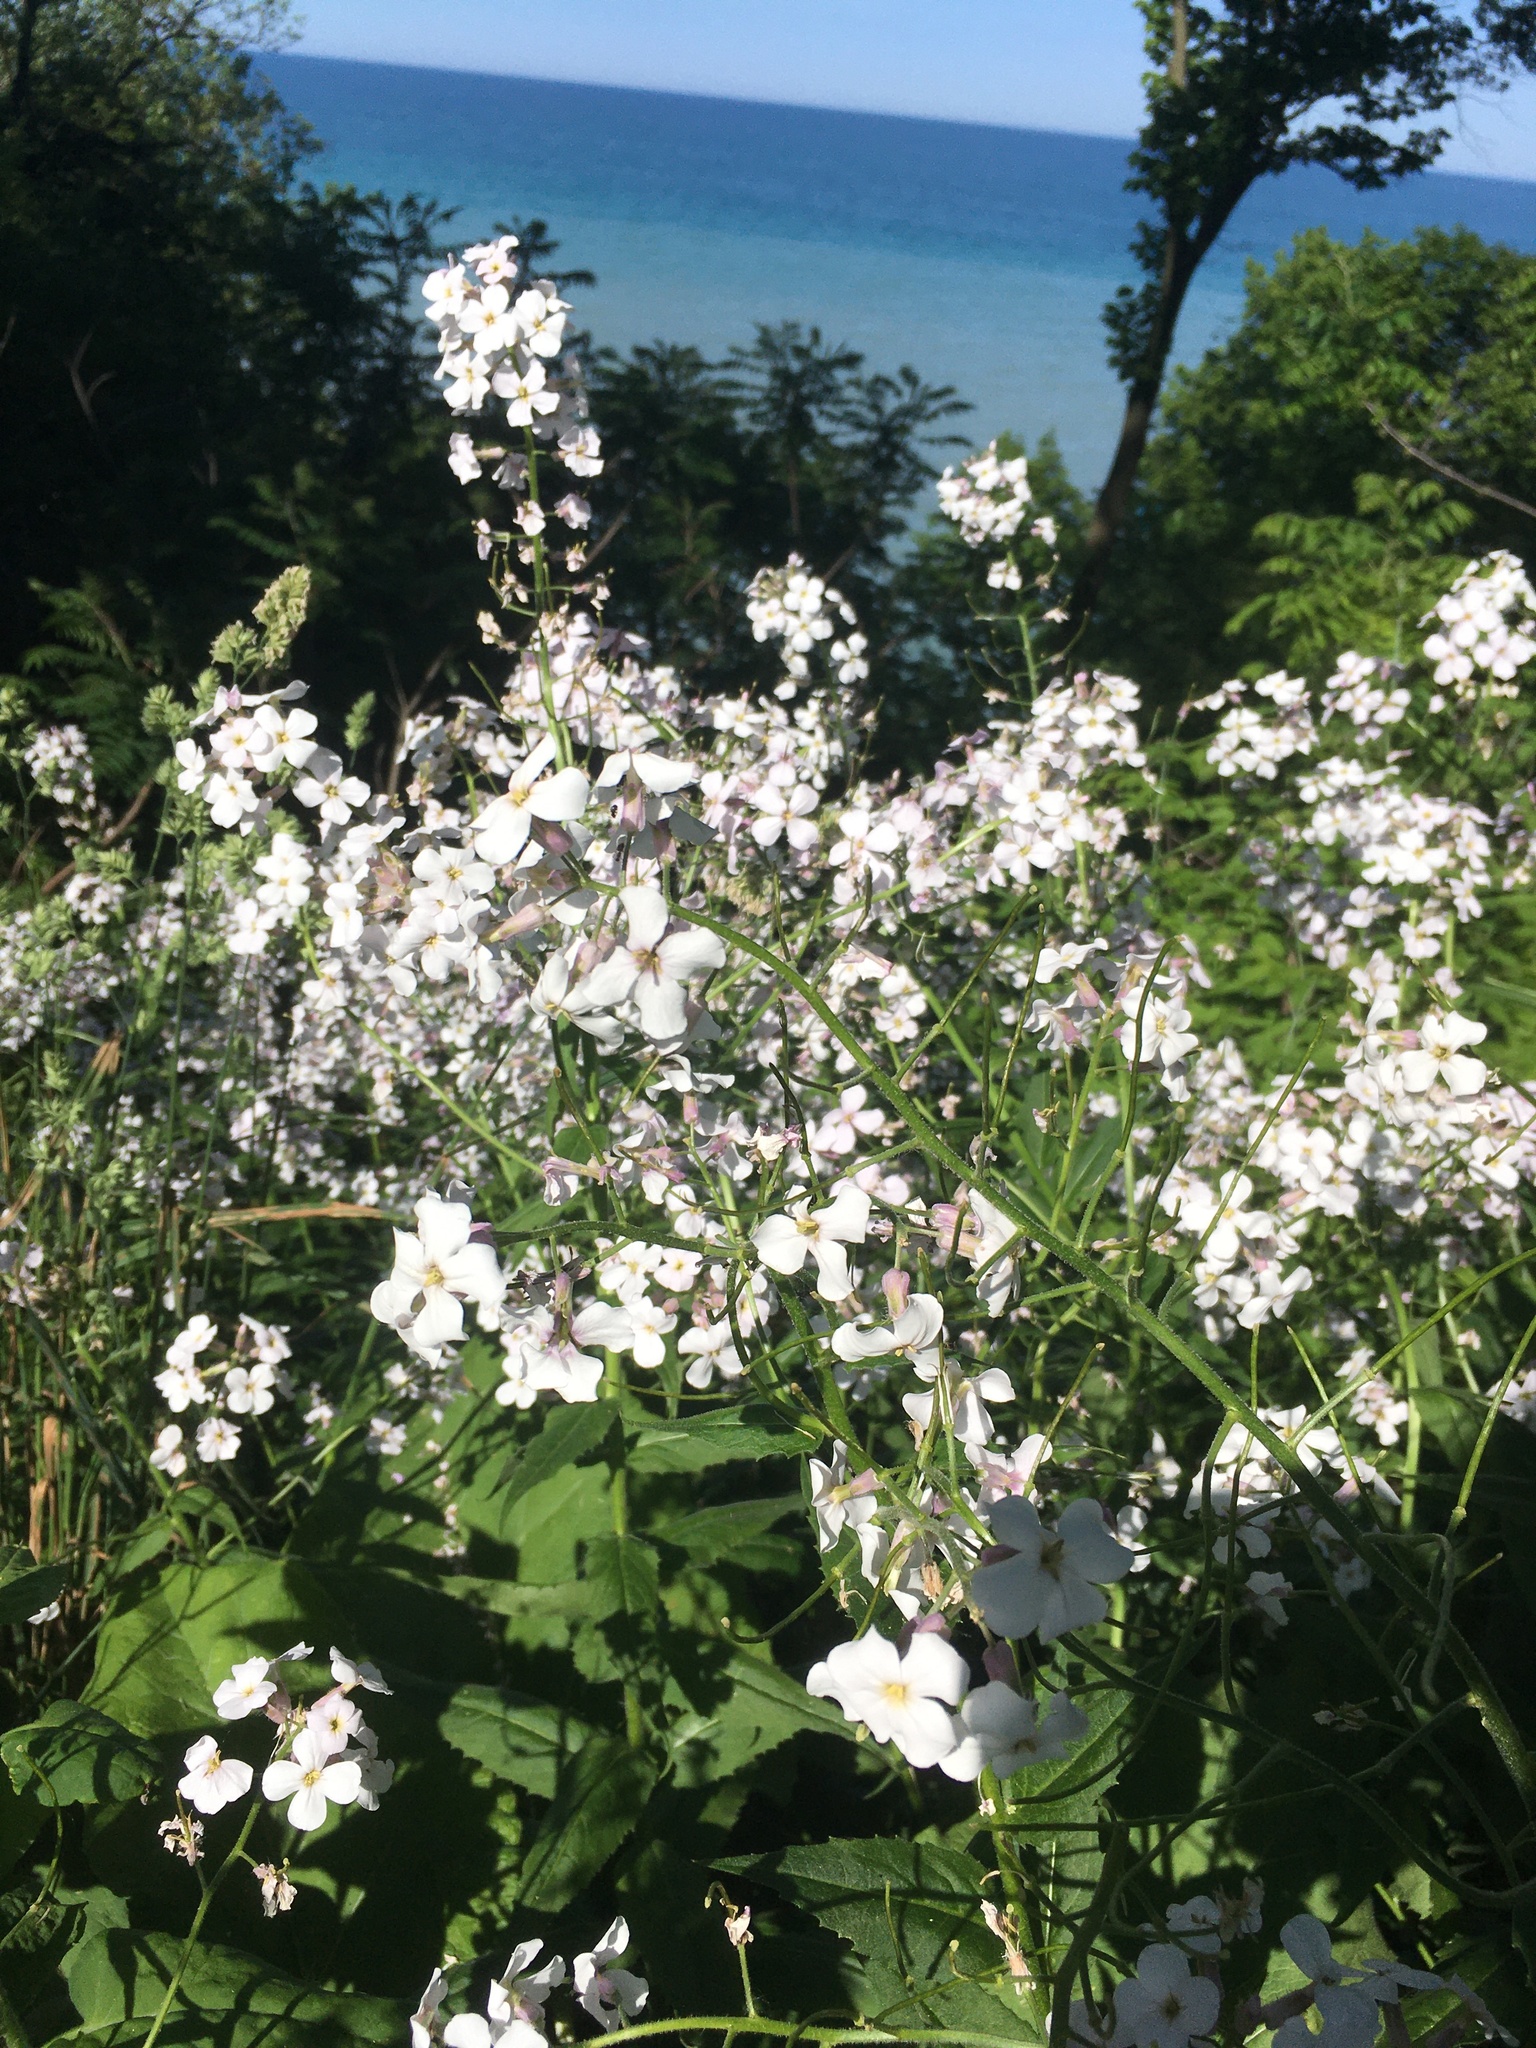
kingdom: Plantae
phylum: Tracheophyta
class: Magnoliopsida
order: Brassicales
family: Brassicaceae
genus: Hesperis
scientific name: Hesperis matronalis
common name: Dame's-violet
